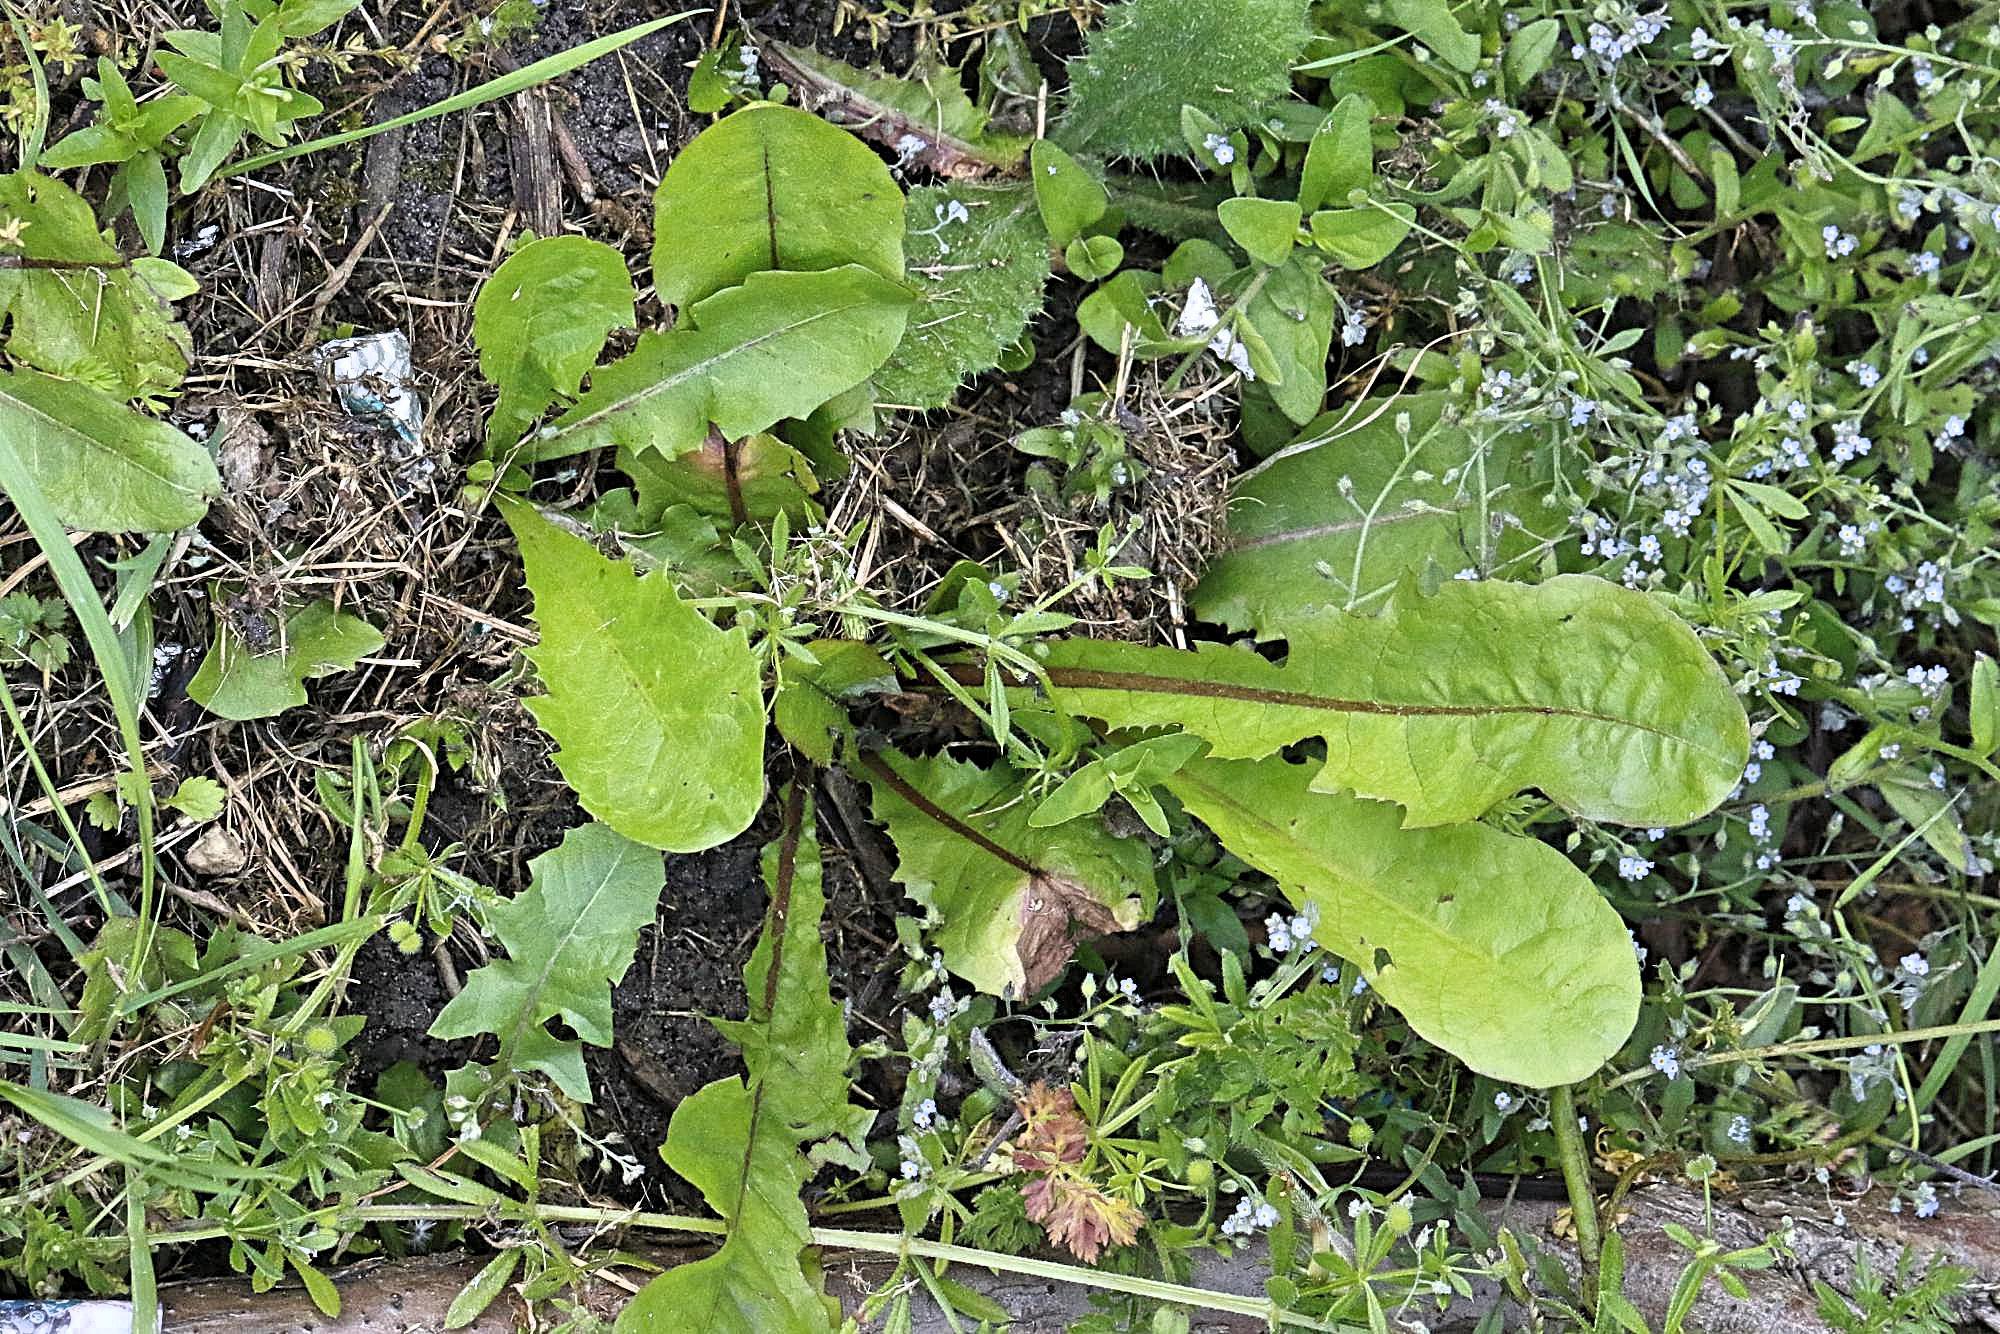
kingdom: Plantae
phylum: Tracheophyta
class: Magnoliopsida
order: Asterales
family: Asteraceae
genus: Taraxacum
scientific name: Taraxacum officinale
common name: Common dandelion
